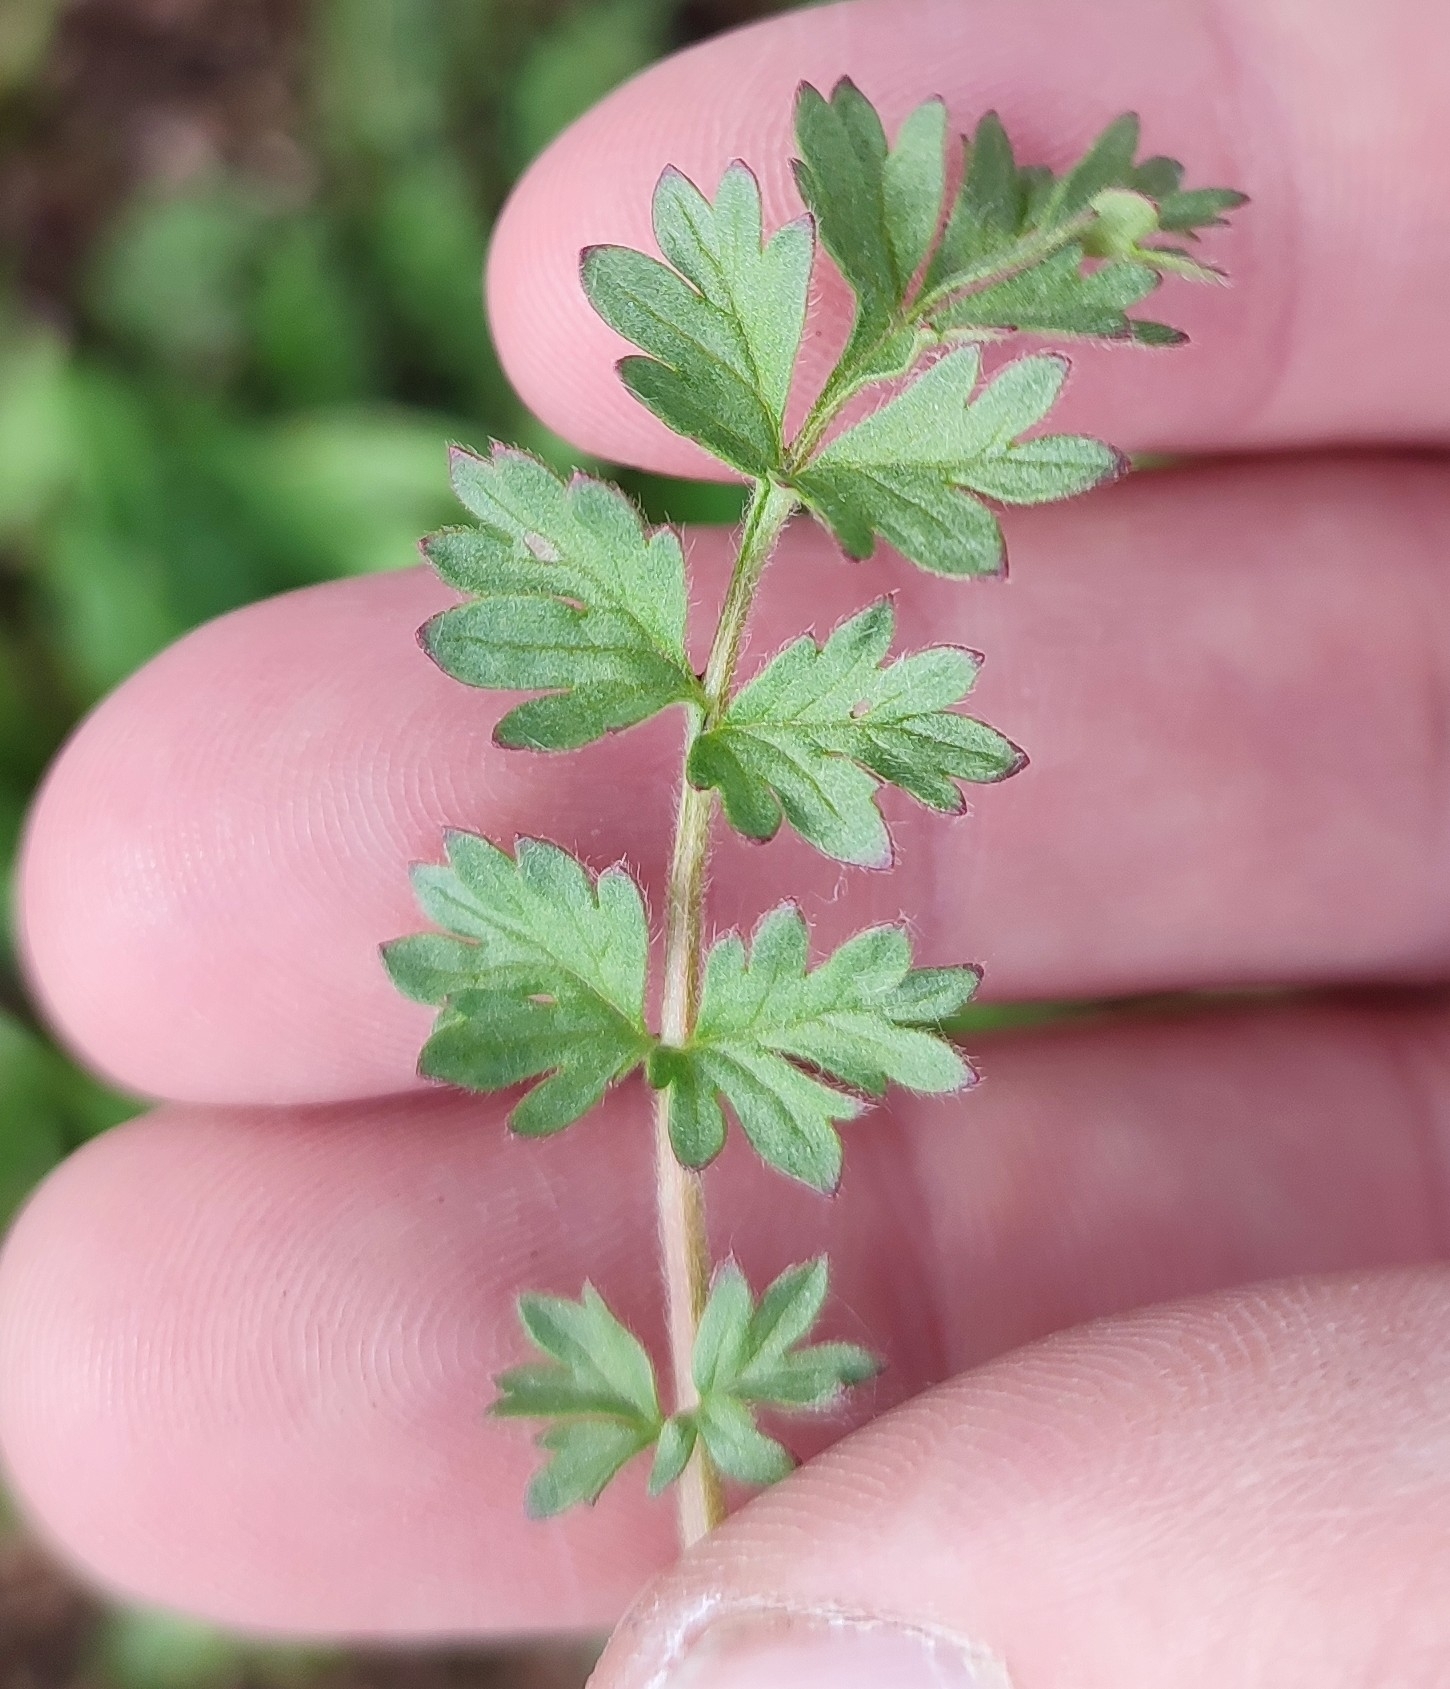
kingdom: Plantae
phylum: Tracheophyta
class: Magnoliopsida
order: Rosales
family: Rosaceae
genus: Potentilla
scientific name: Potentilla supina
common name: Prostrate cinquefoil
